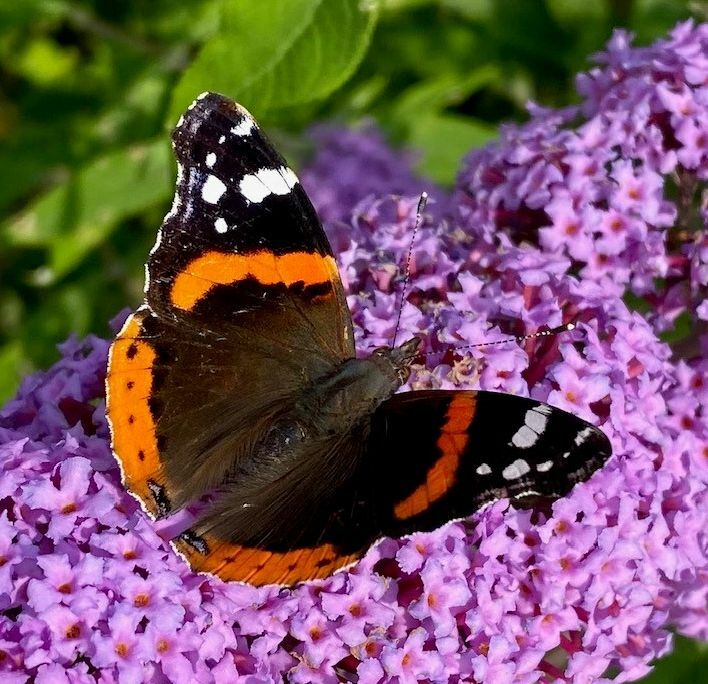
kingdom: Animalia
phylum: Arthropoda
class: Insecta
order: Lepidoptera
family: Nymphalidae
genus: Vanessa
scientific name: Vanessa atalanta
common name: Red admiral
